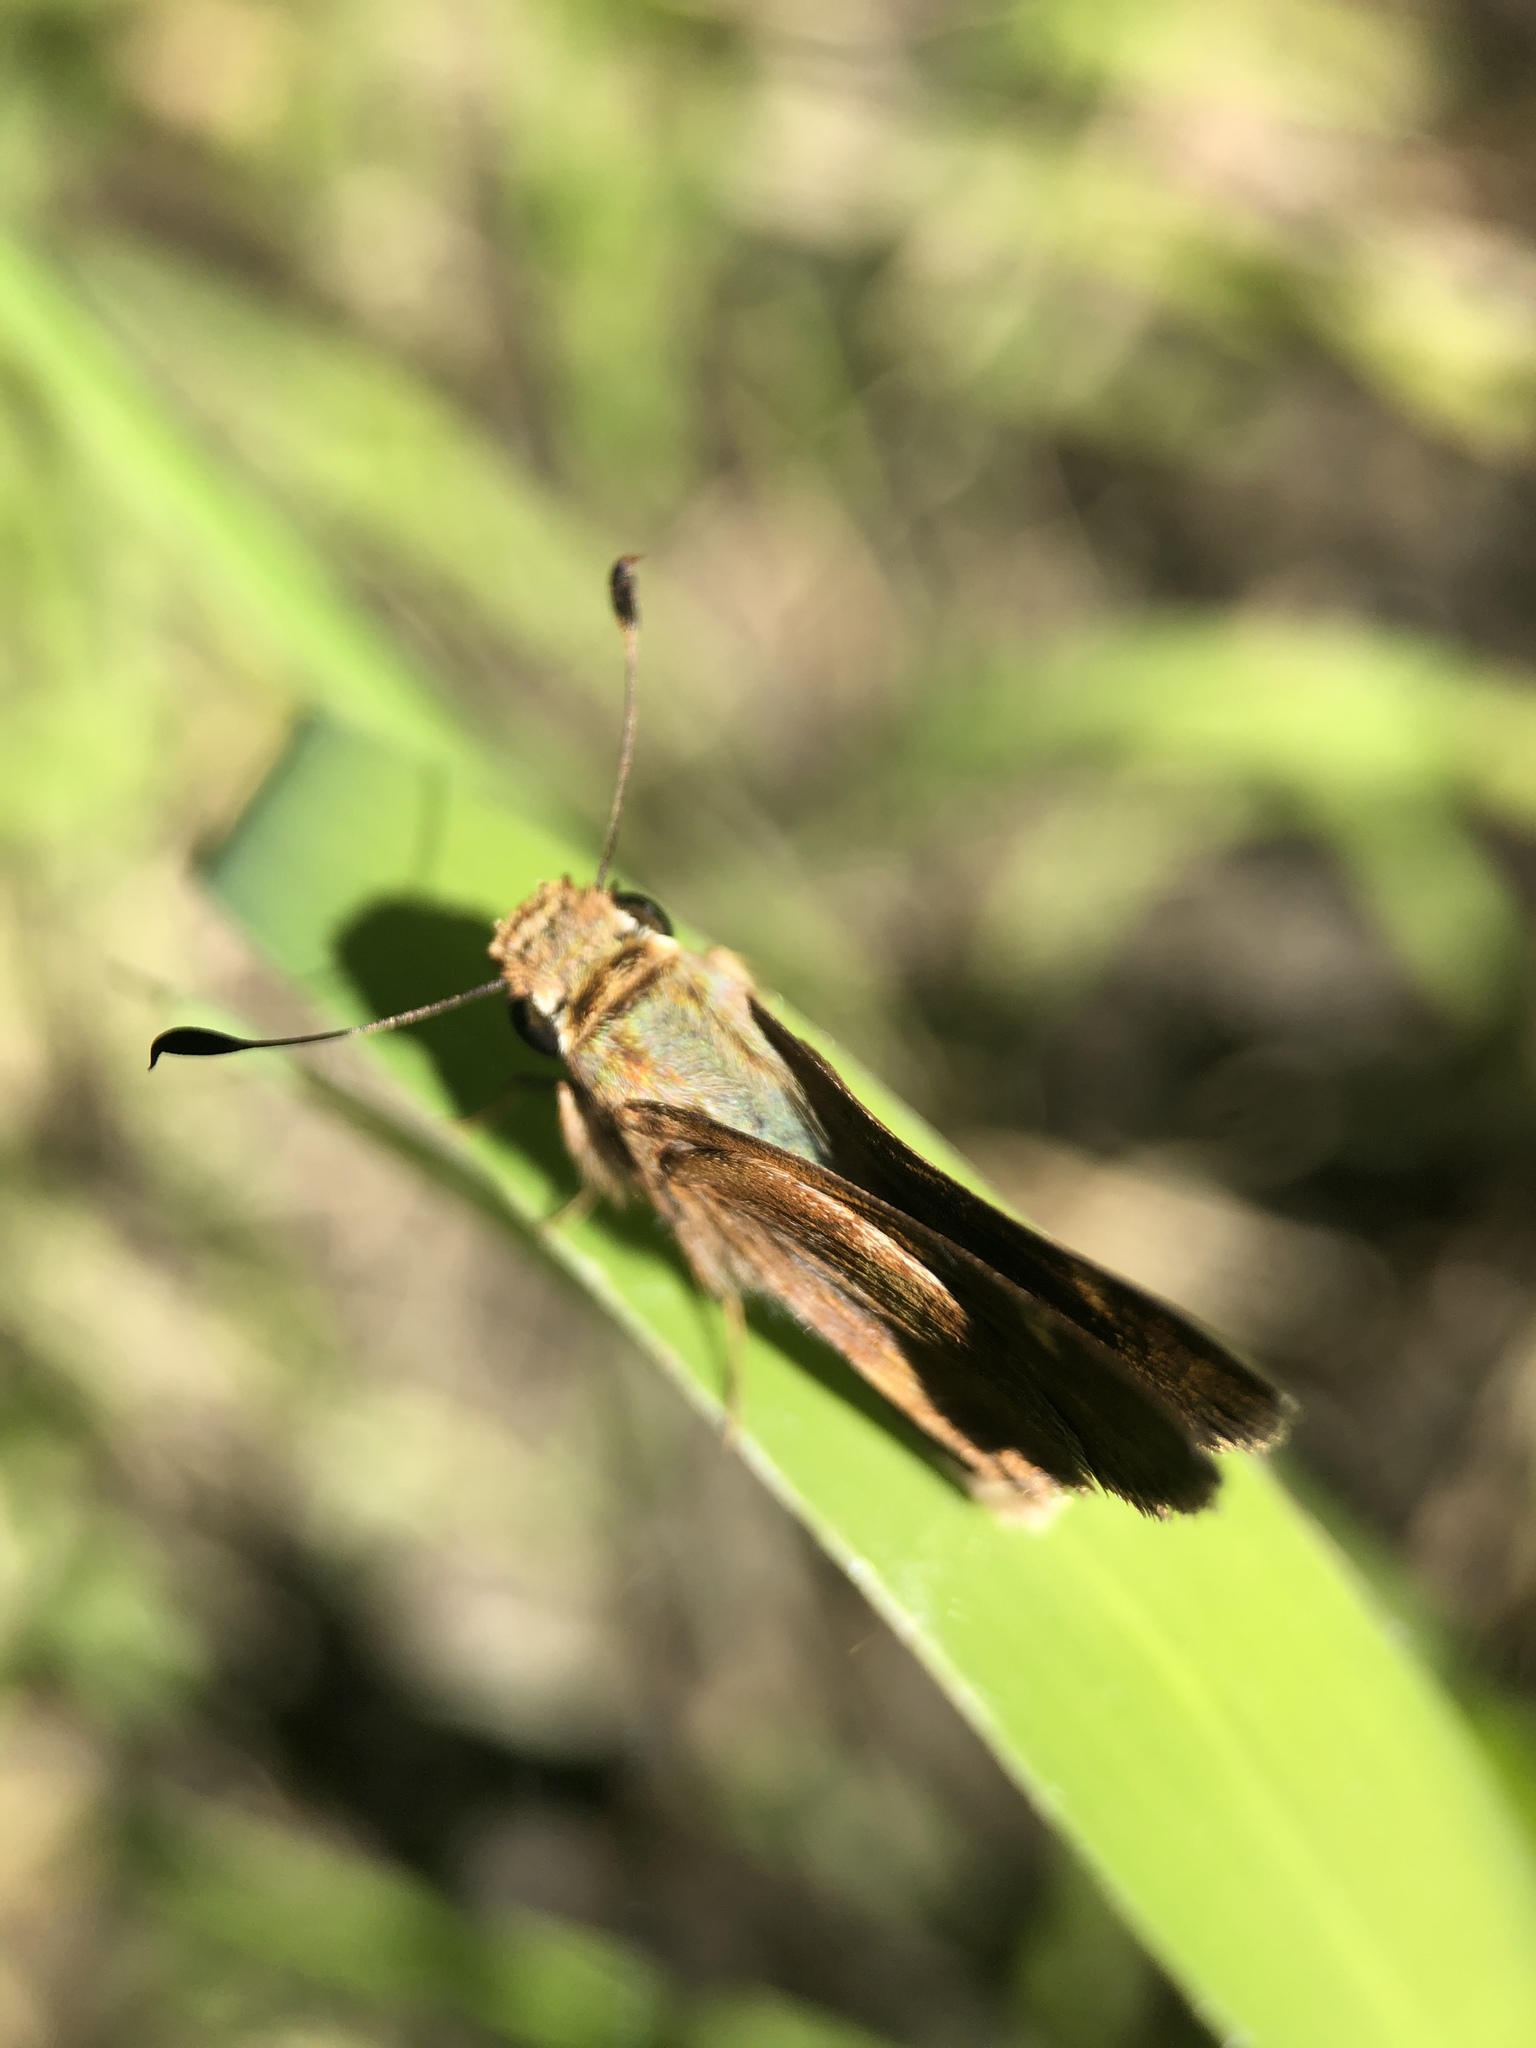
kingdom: Animalia
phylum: Arthropoda
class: Insecta
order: Lepidoptera
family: Hesperiidae
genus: Lon
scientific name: Lon melane
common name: Umber skipper
